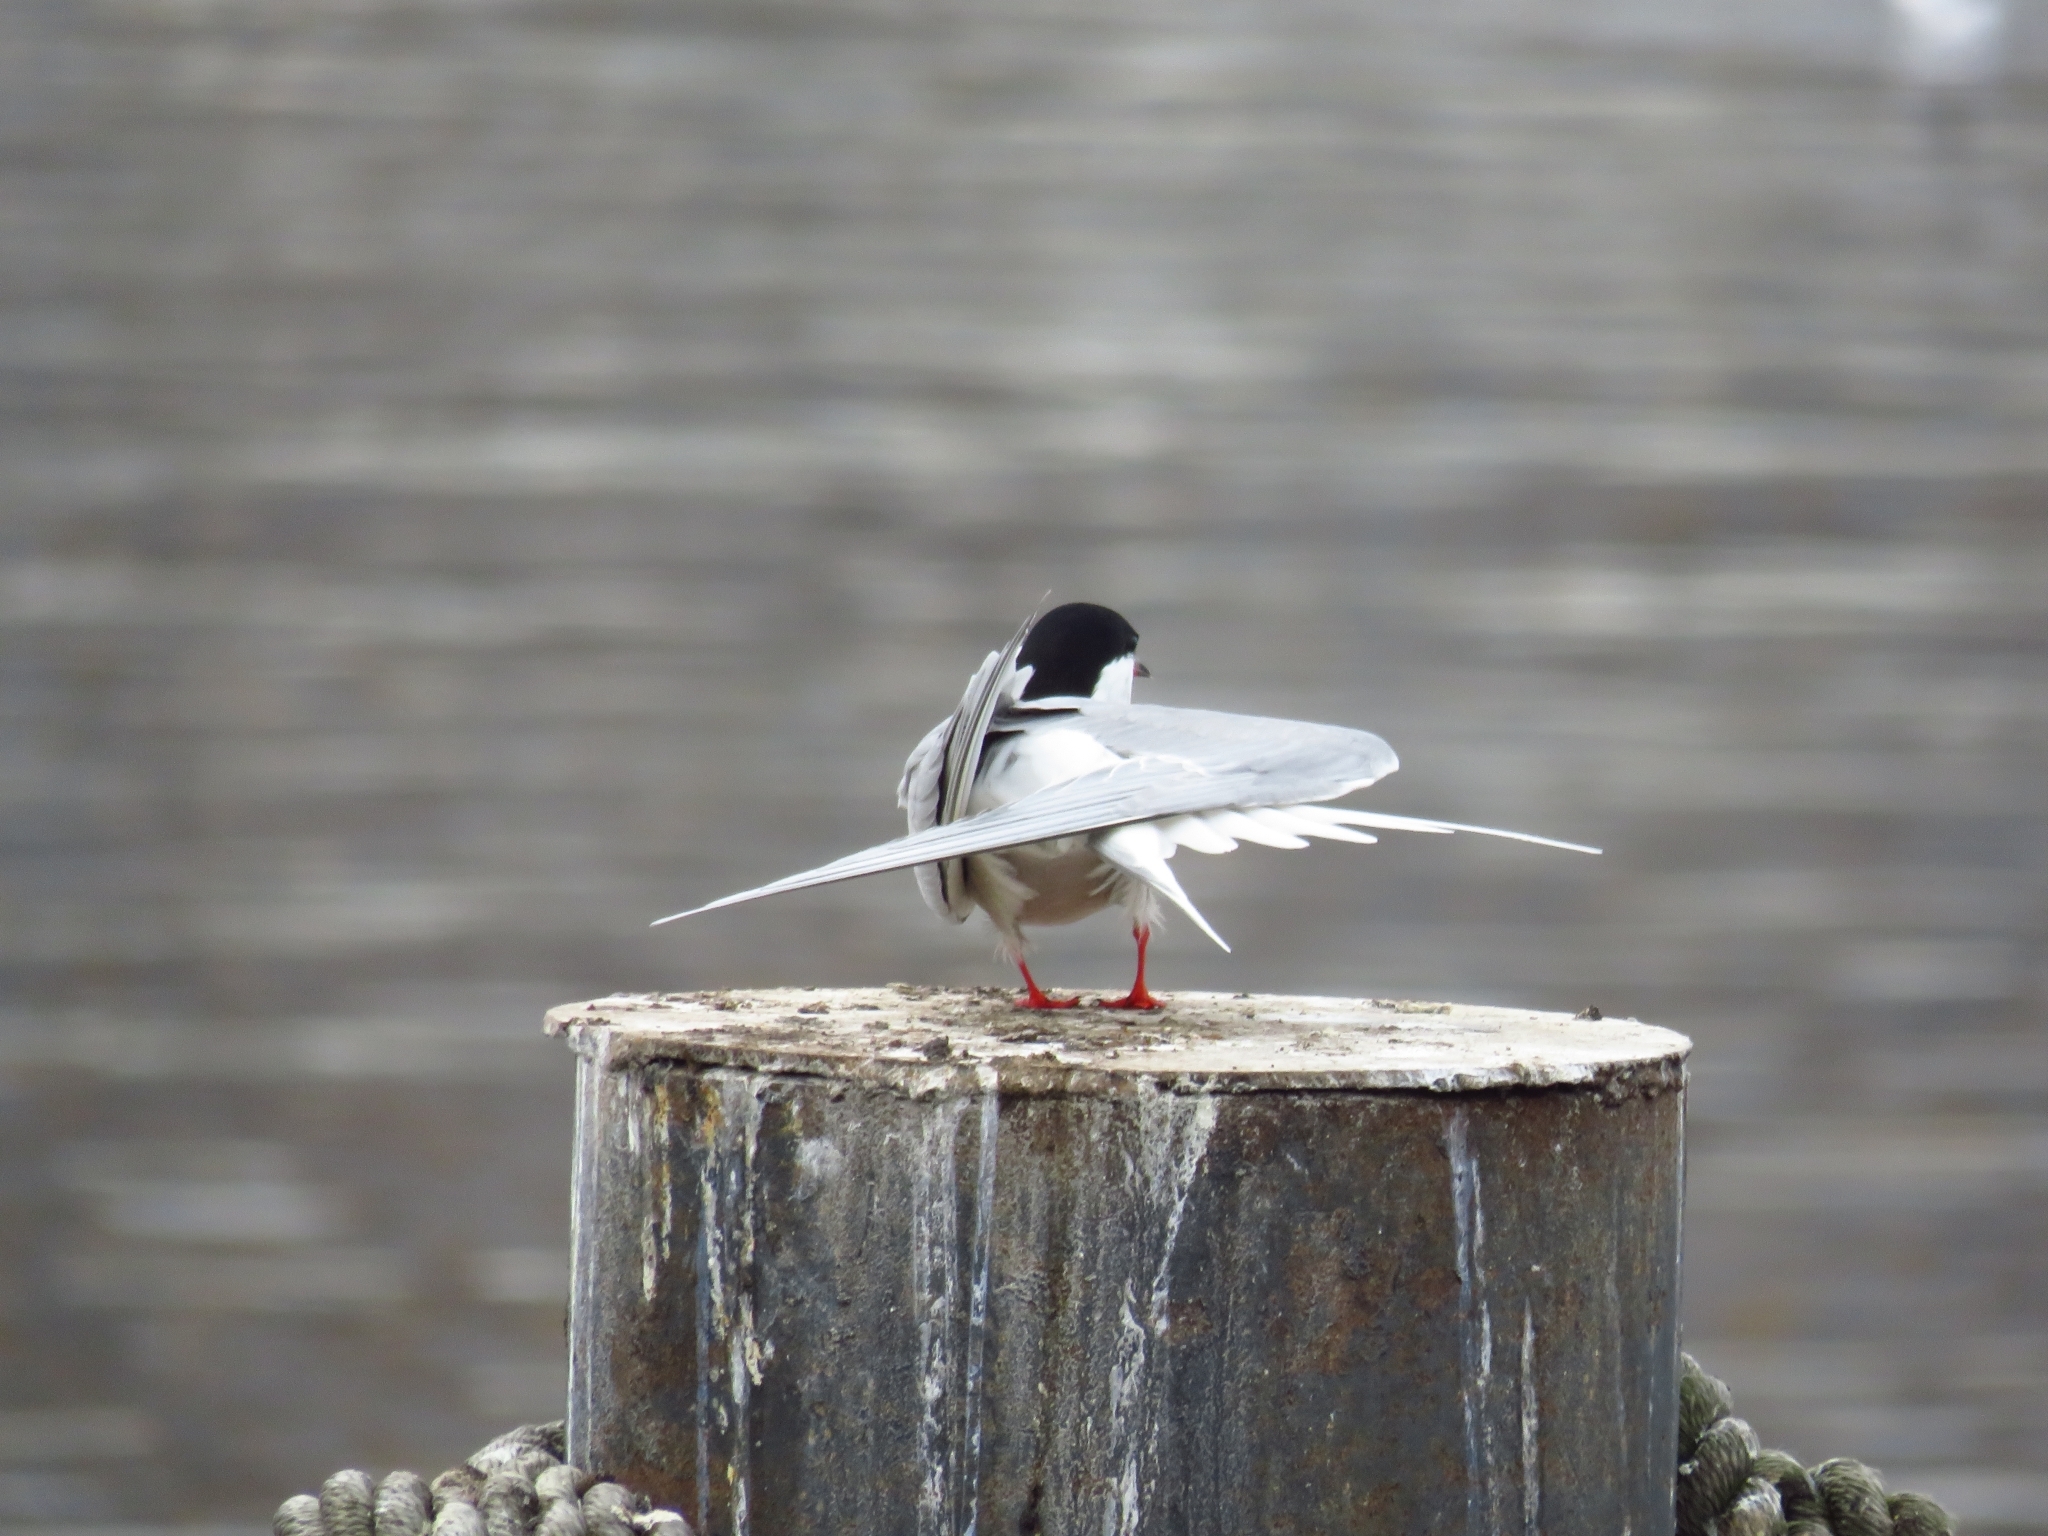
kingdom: Animalia
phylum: Chordata
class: Aves
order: Charadriiformes
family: Laridae
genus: Sterna
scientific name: Sterna hirundo
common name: Common tern
